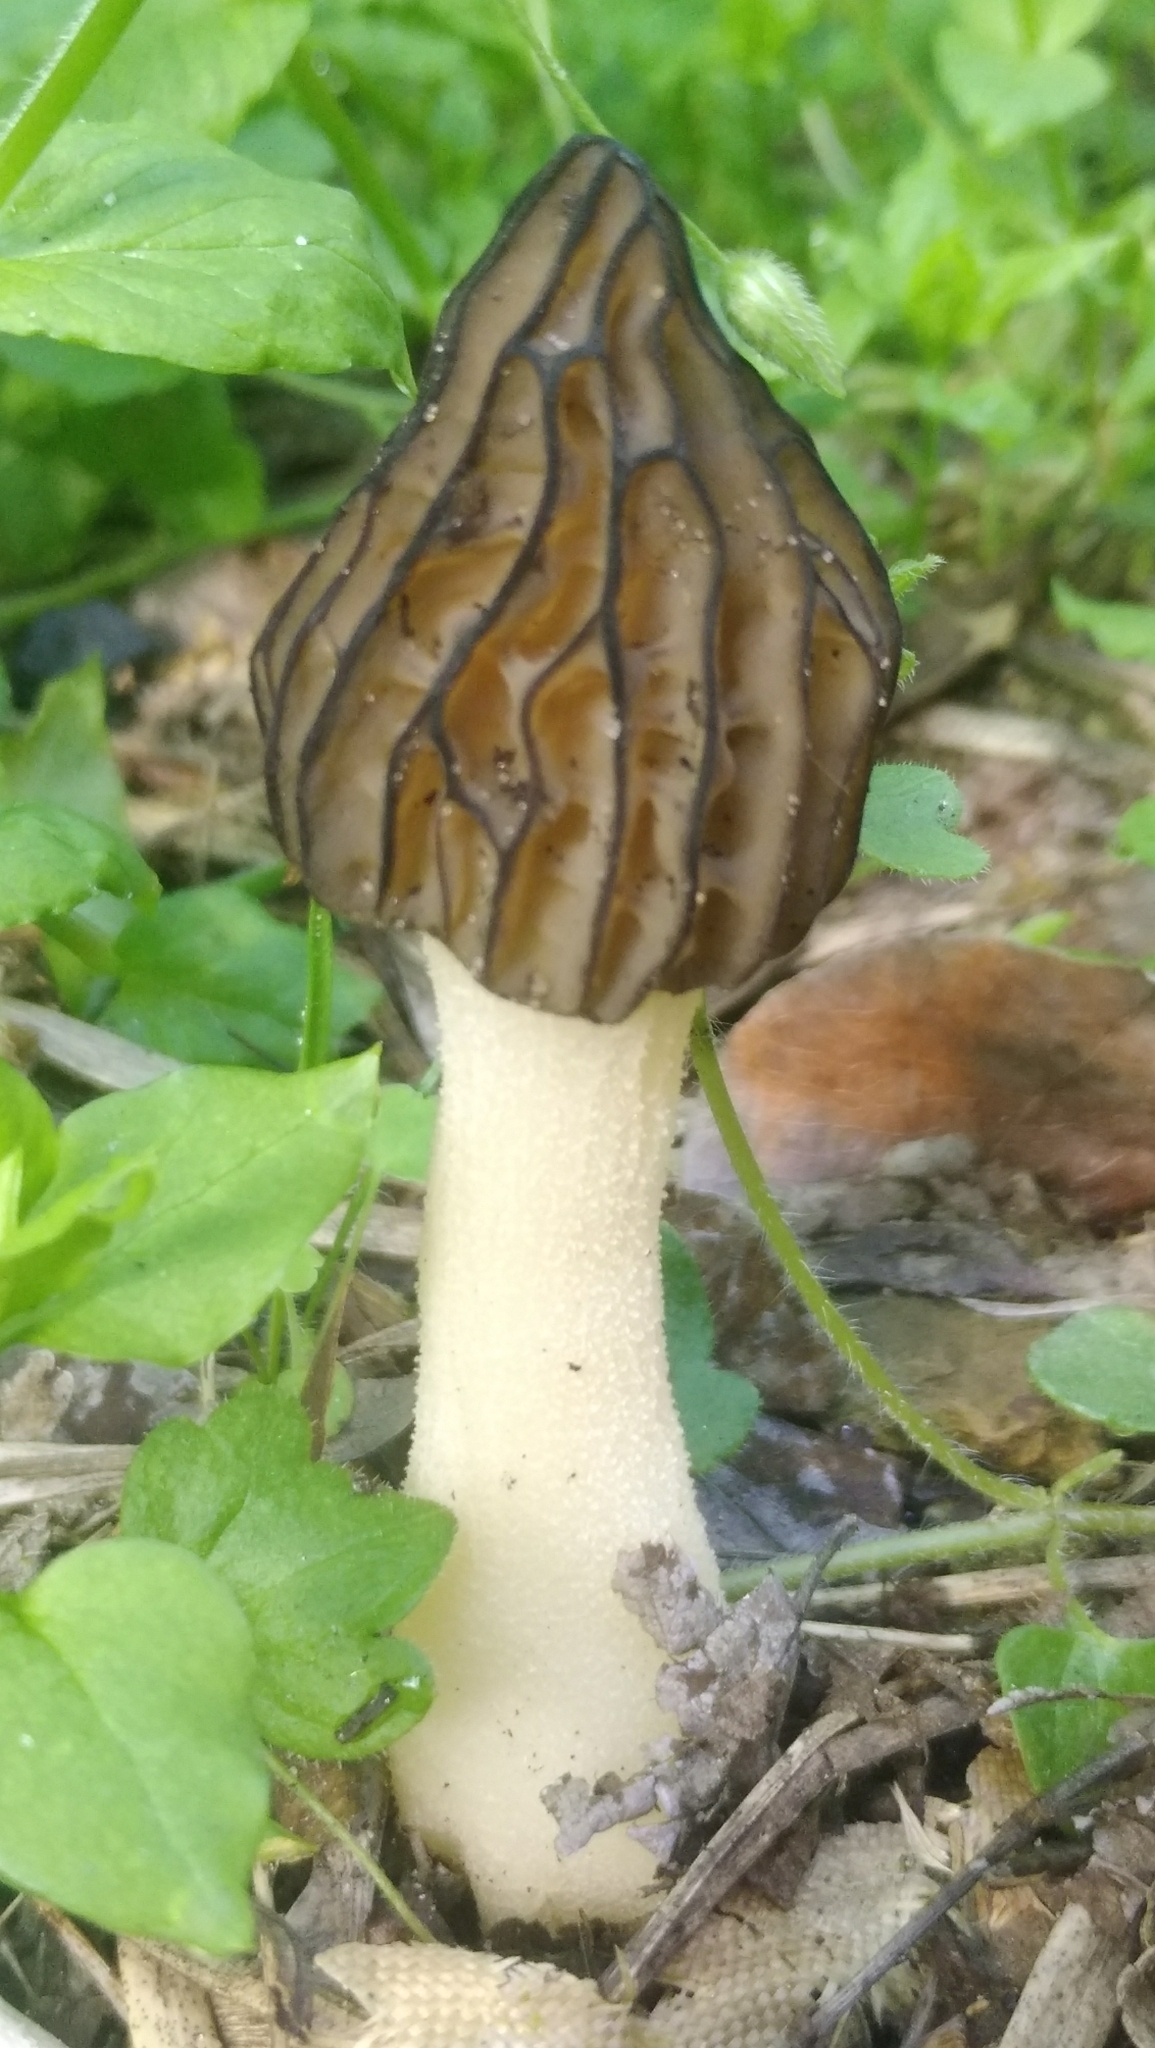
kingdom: Fungi
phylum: Ascomycota
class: Pezizomycetes
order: Pezizales
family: Morchellaceae
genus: Morchella
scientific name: Morchella semilibera
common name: Semifree morel
